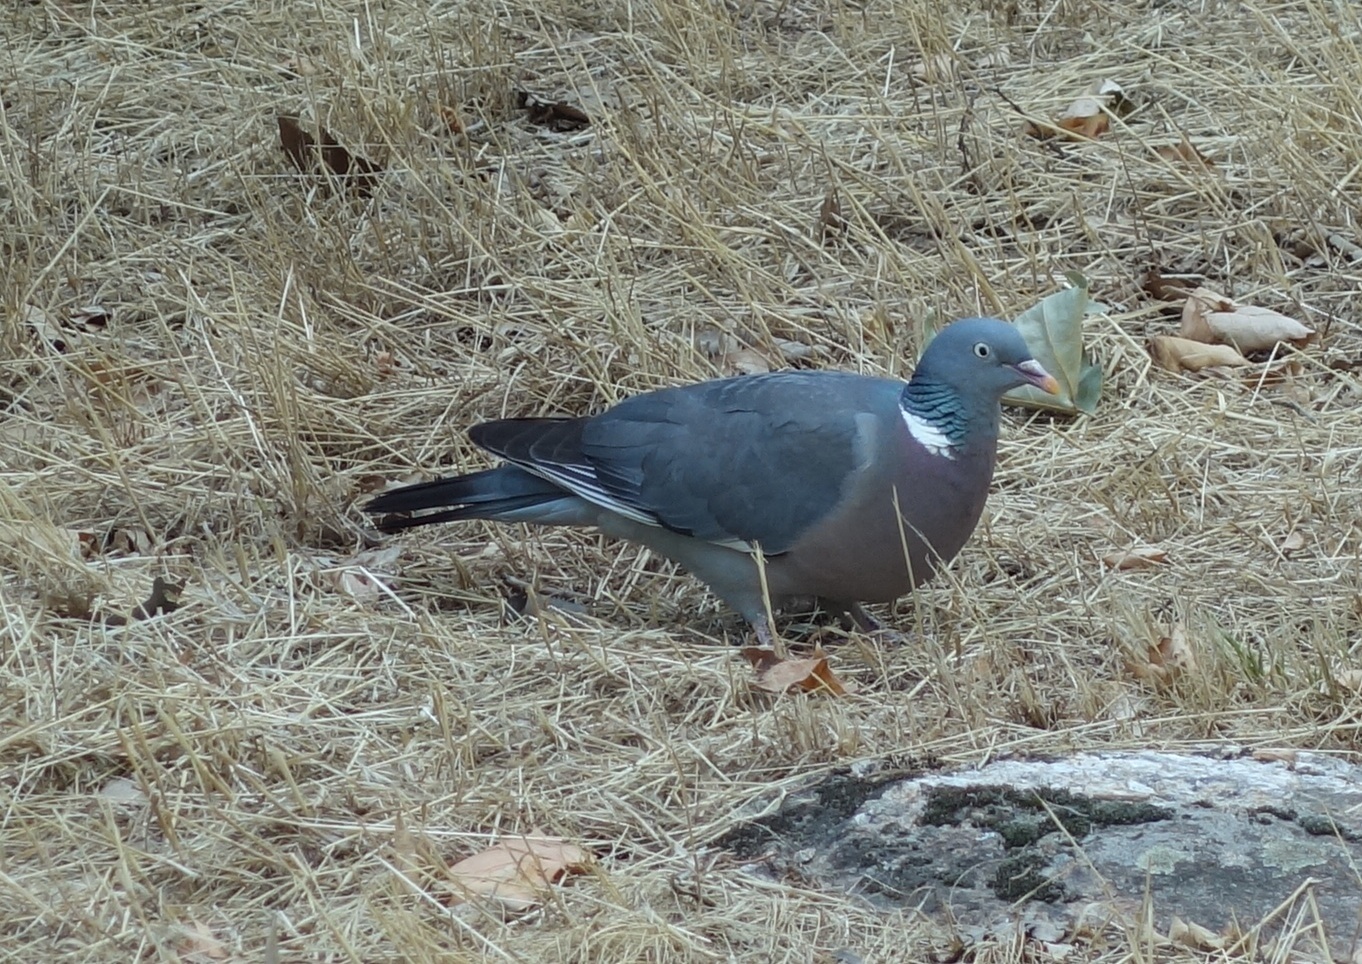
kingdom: Animalia
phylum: Chordata
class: Aves
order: Columbiformes
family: Columbidae
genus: Columba
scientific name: Columba palumbus
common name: Common wood pigeon
